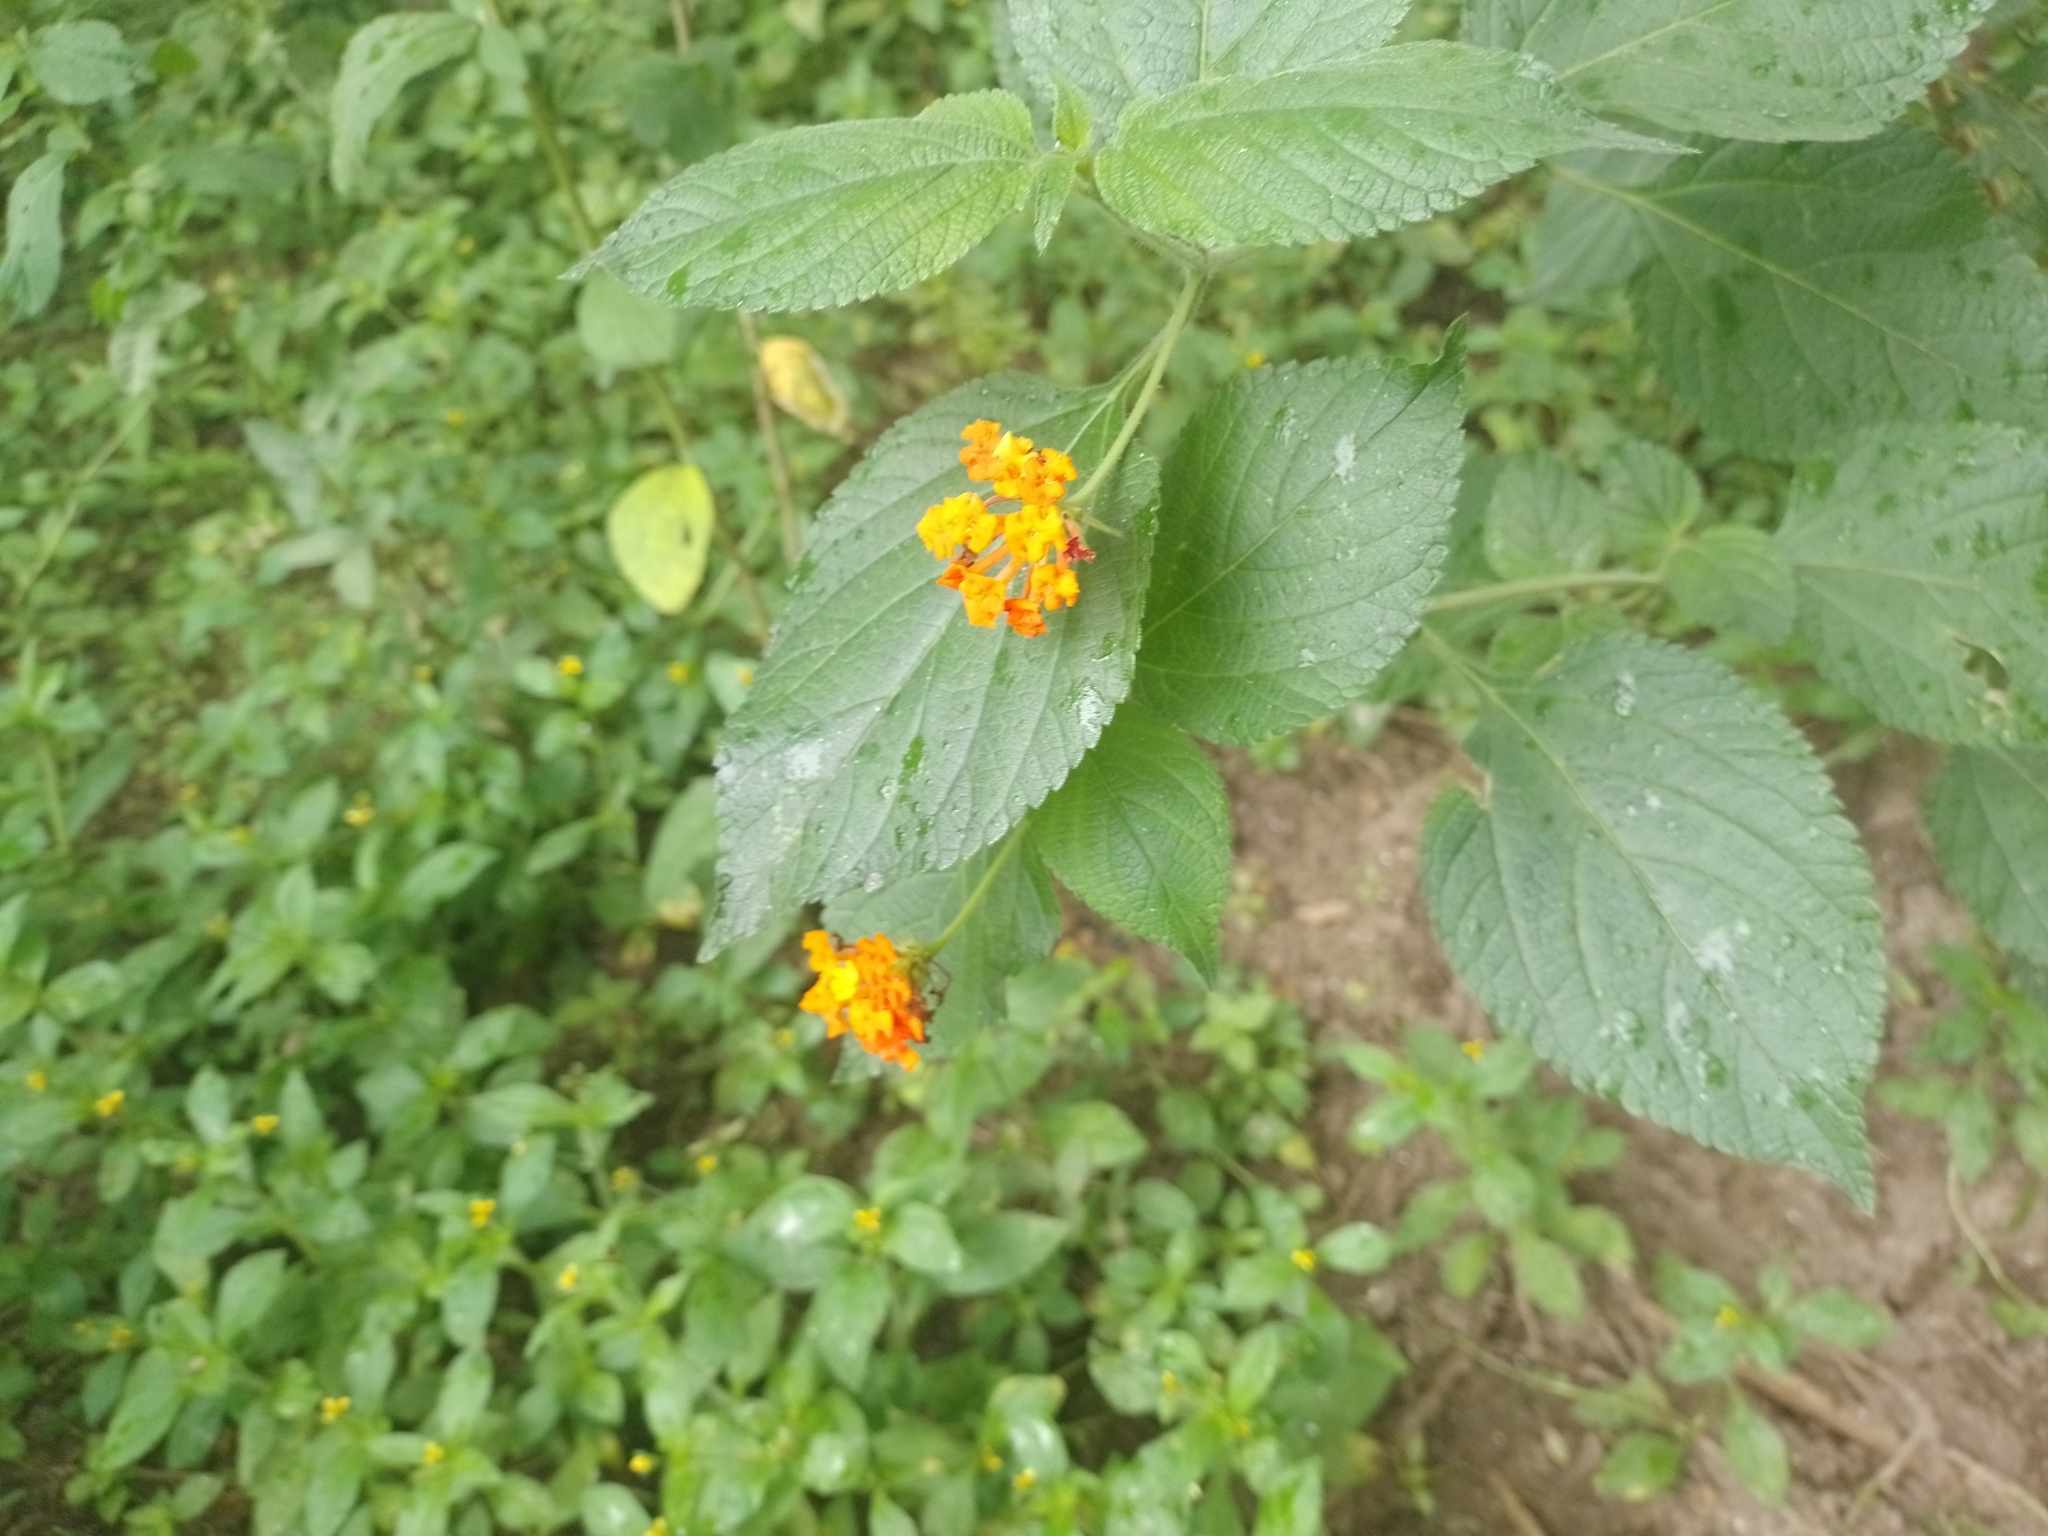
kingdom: Plantae
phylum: Tracheophyta
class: Magnoliopsida
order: Lamiales
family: Verbenaceae
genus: Lantana
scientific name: Lantana camara
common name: Lantana
